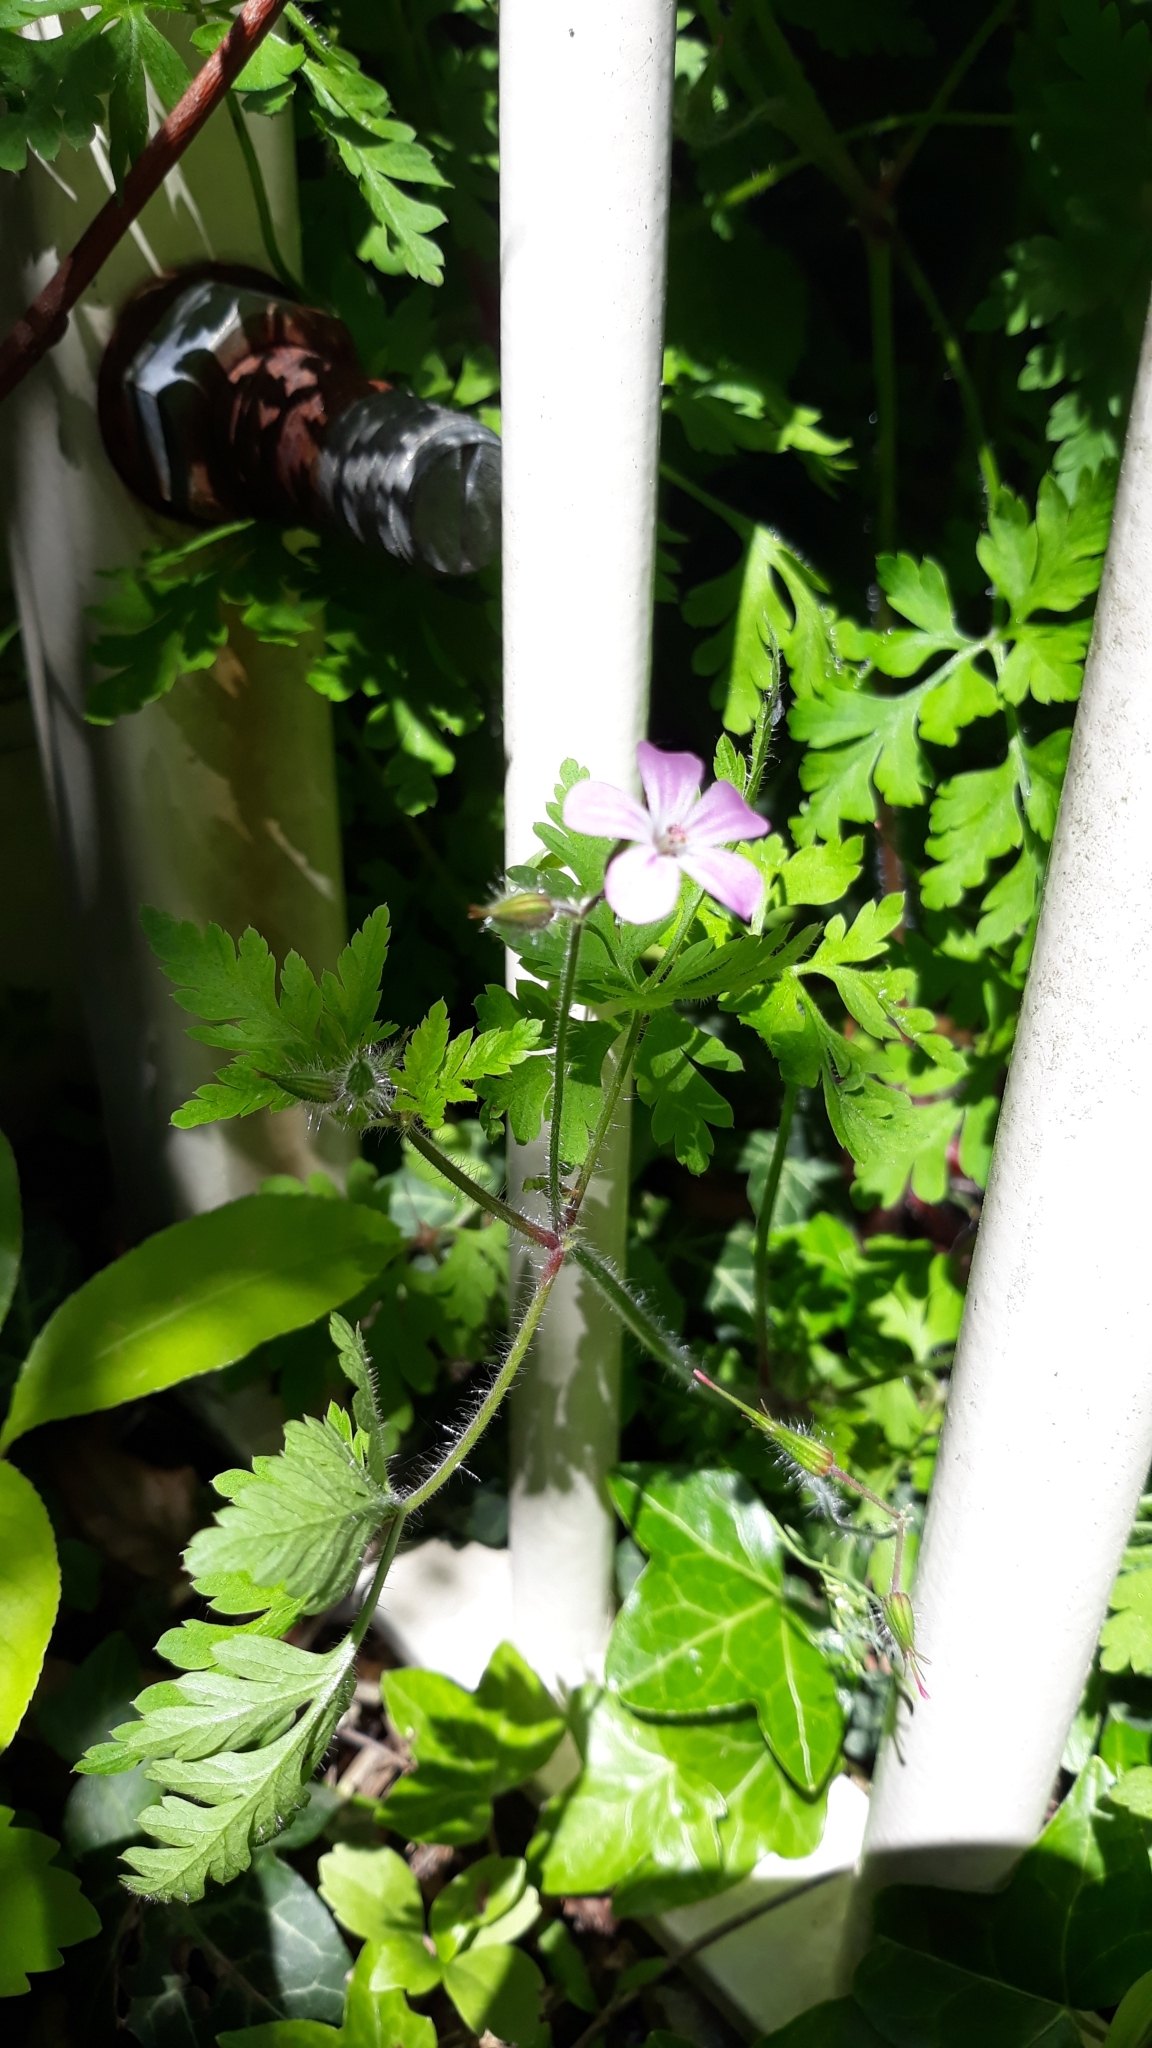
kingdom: Plantae
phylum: Tracheophyta
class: Magnoliopsida
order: Geraniales
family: Geraniaceae
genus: Geranium
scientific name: Geranium robertianum
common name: Herb-robert
